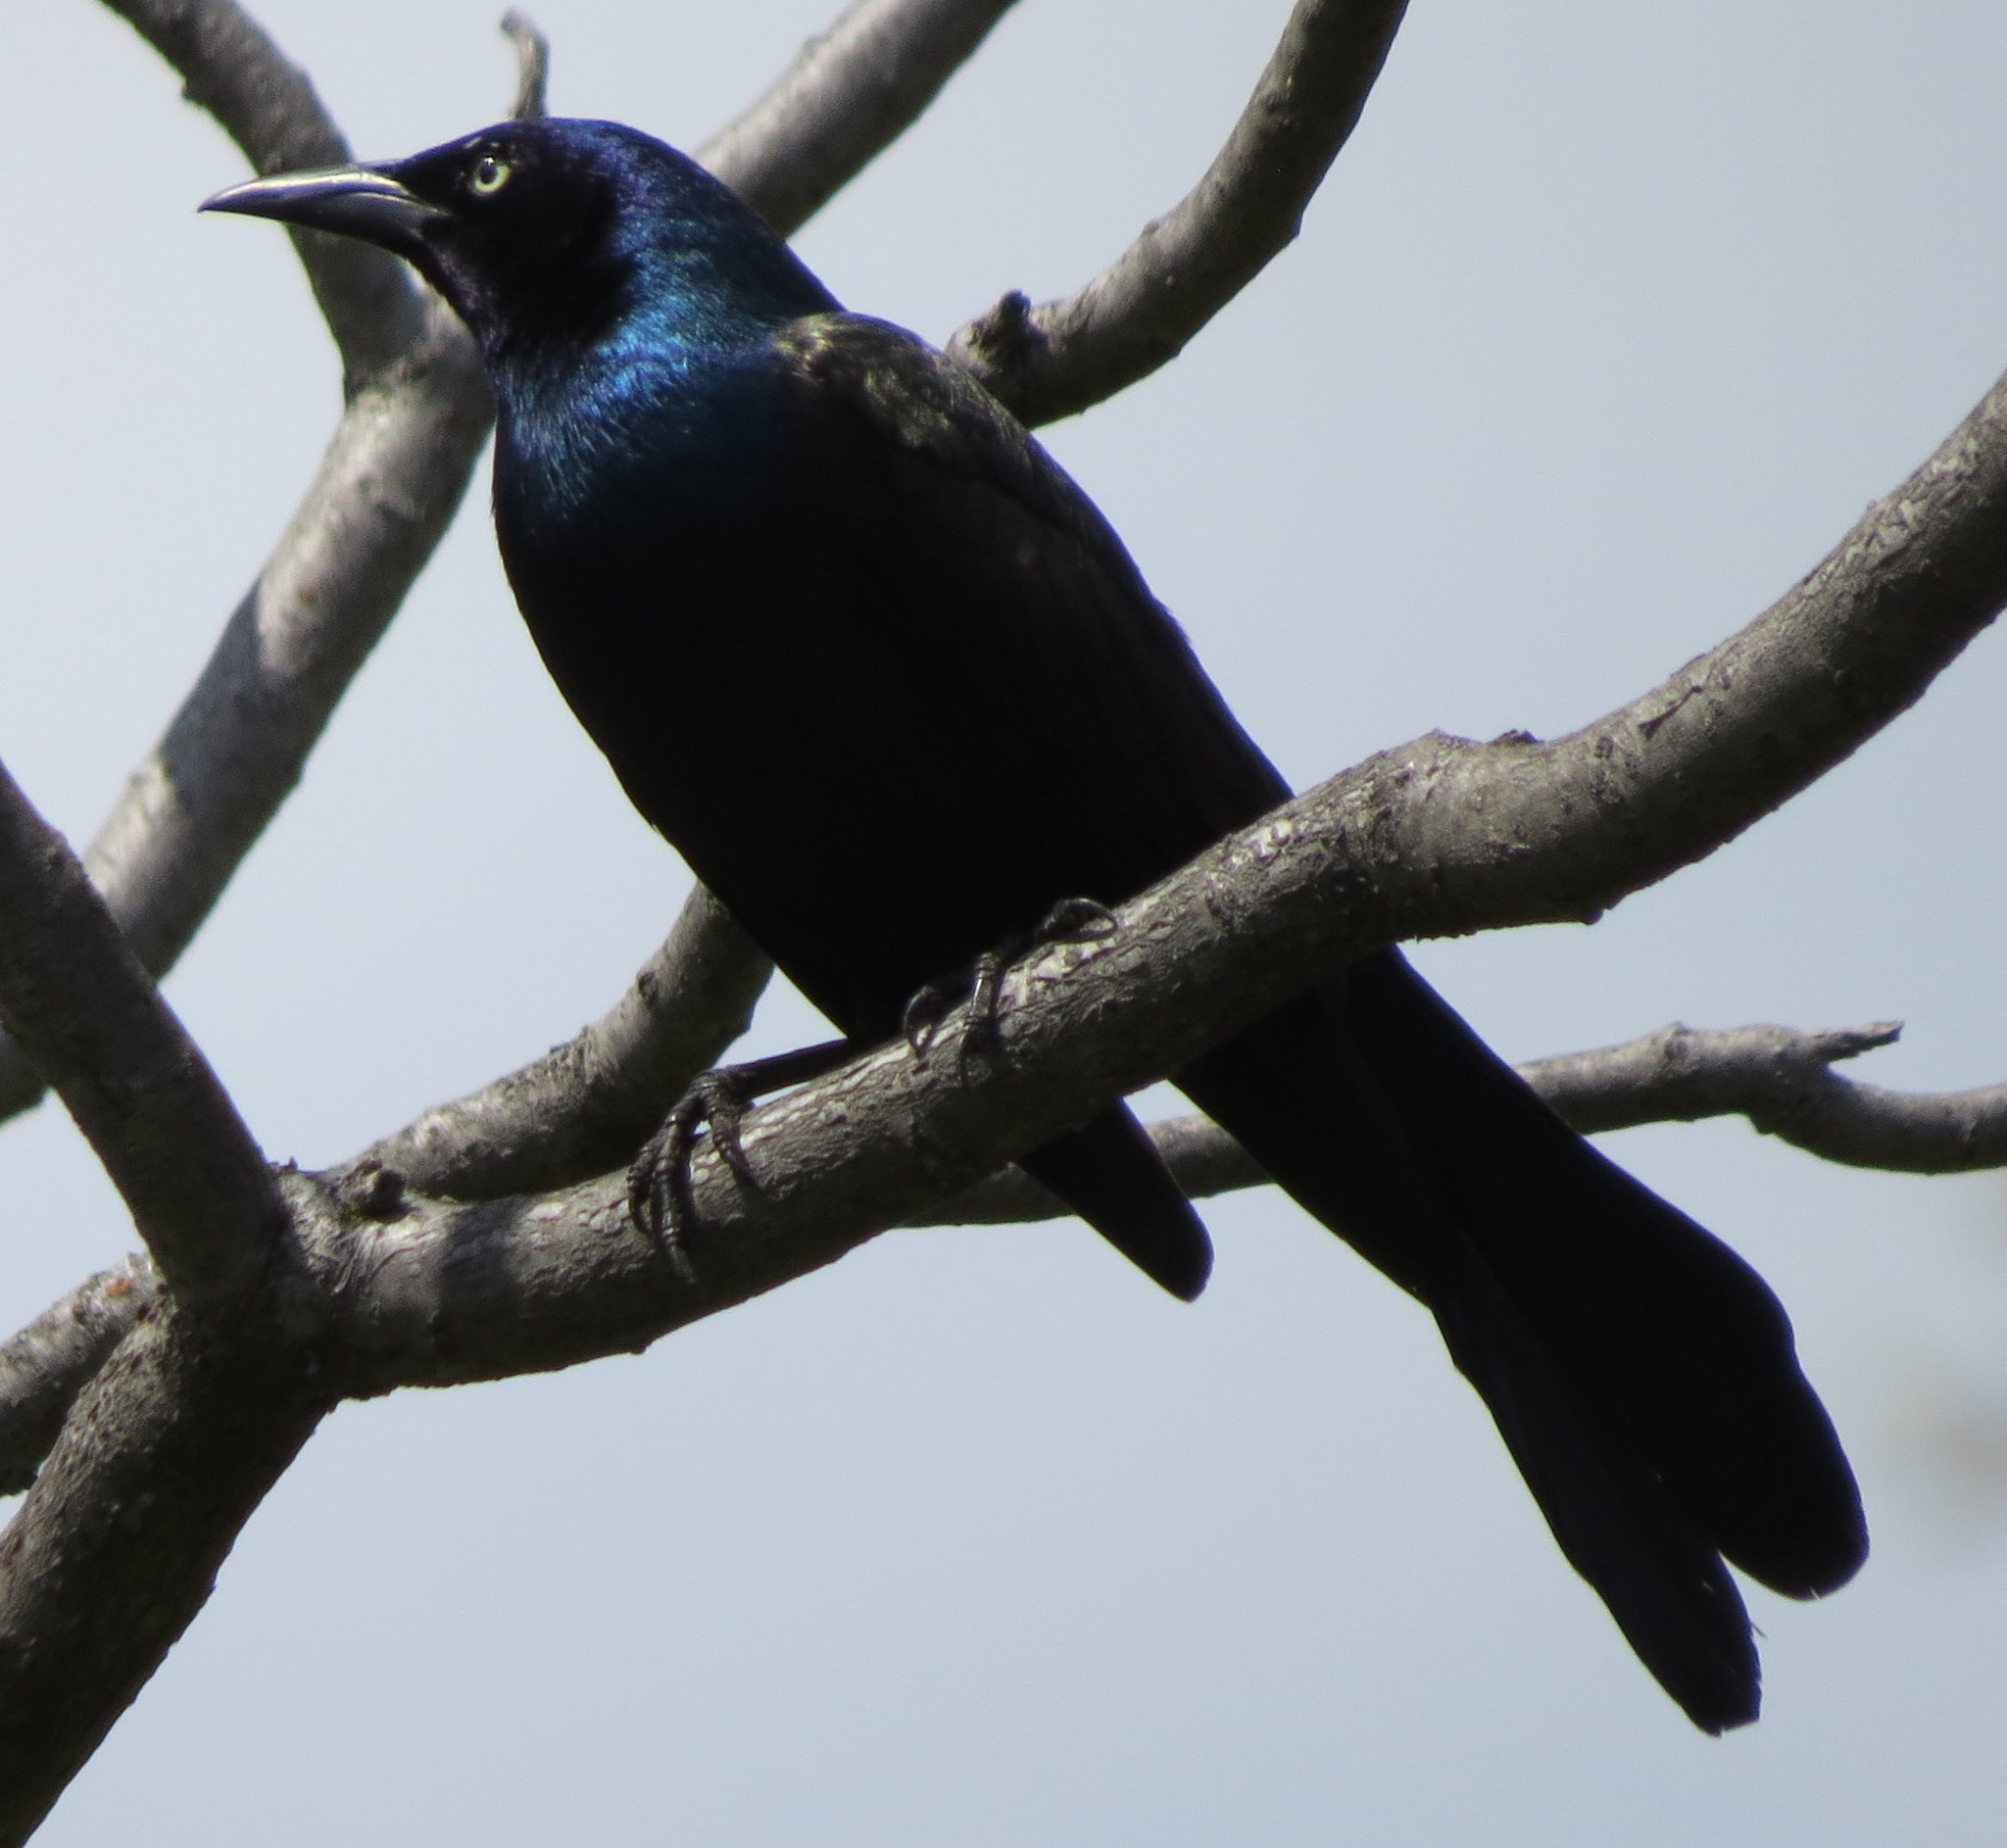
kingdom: Animalia
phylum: Chordata
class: Aves
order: Passeriformes
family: Icteridae
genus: Quiscalus
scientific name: Quiscalus quiscula
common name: Common grackle
